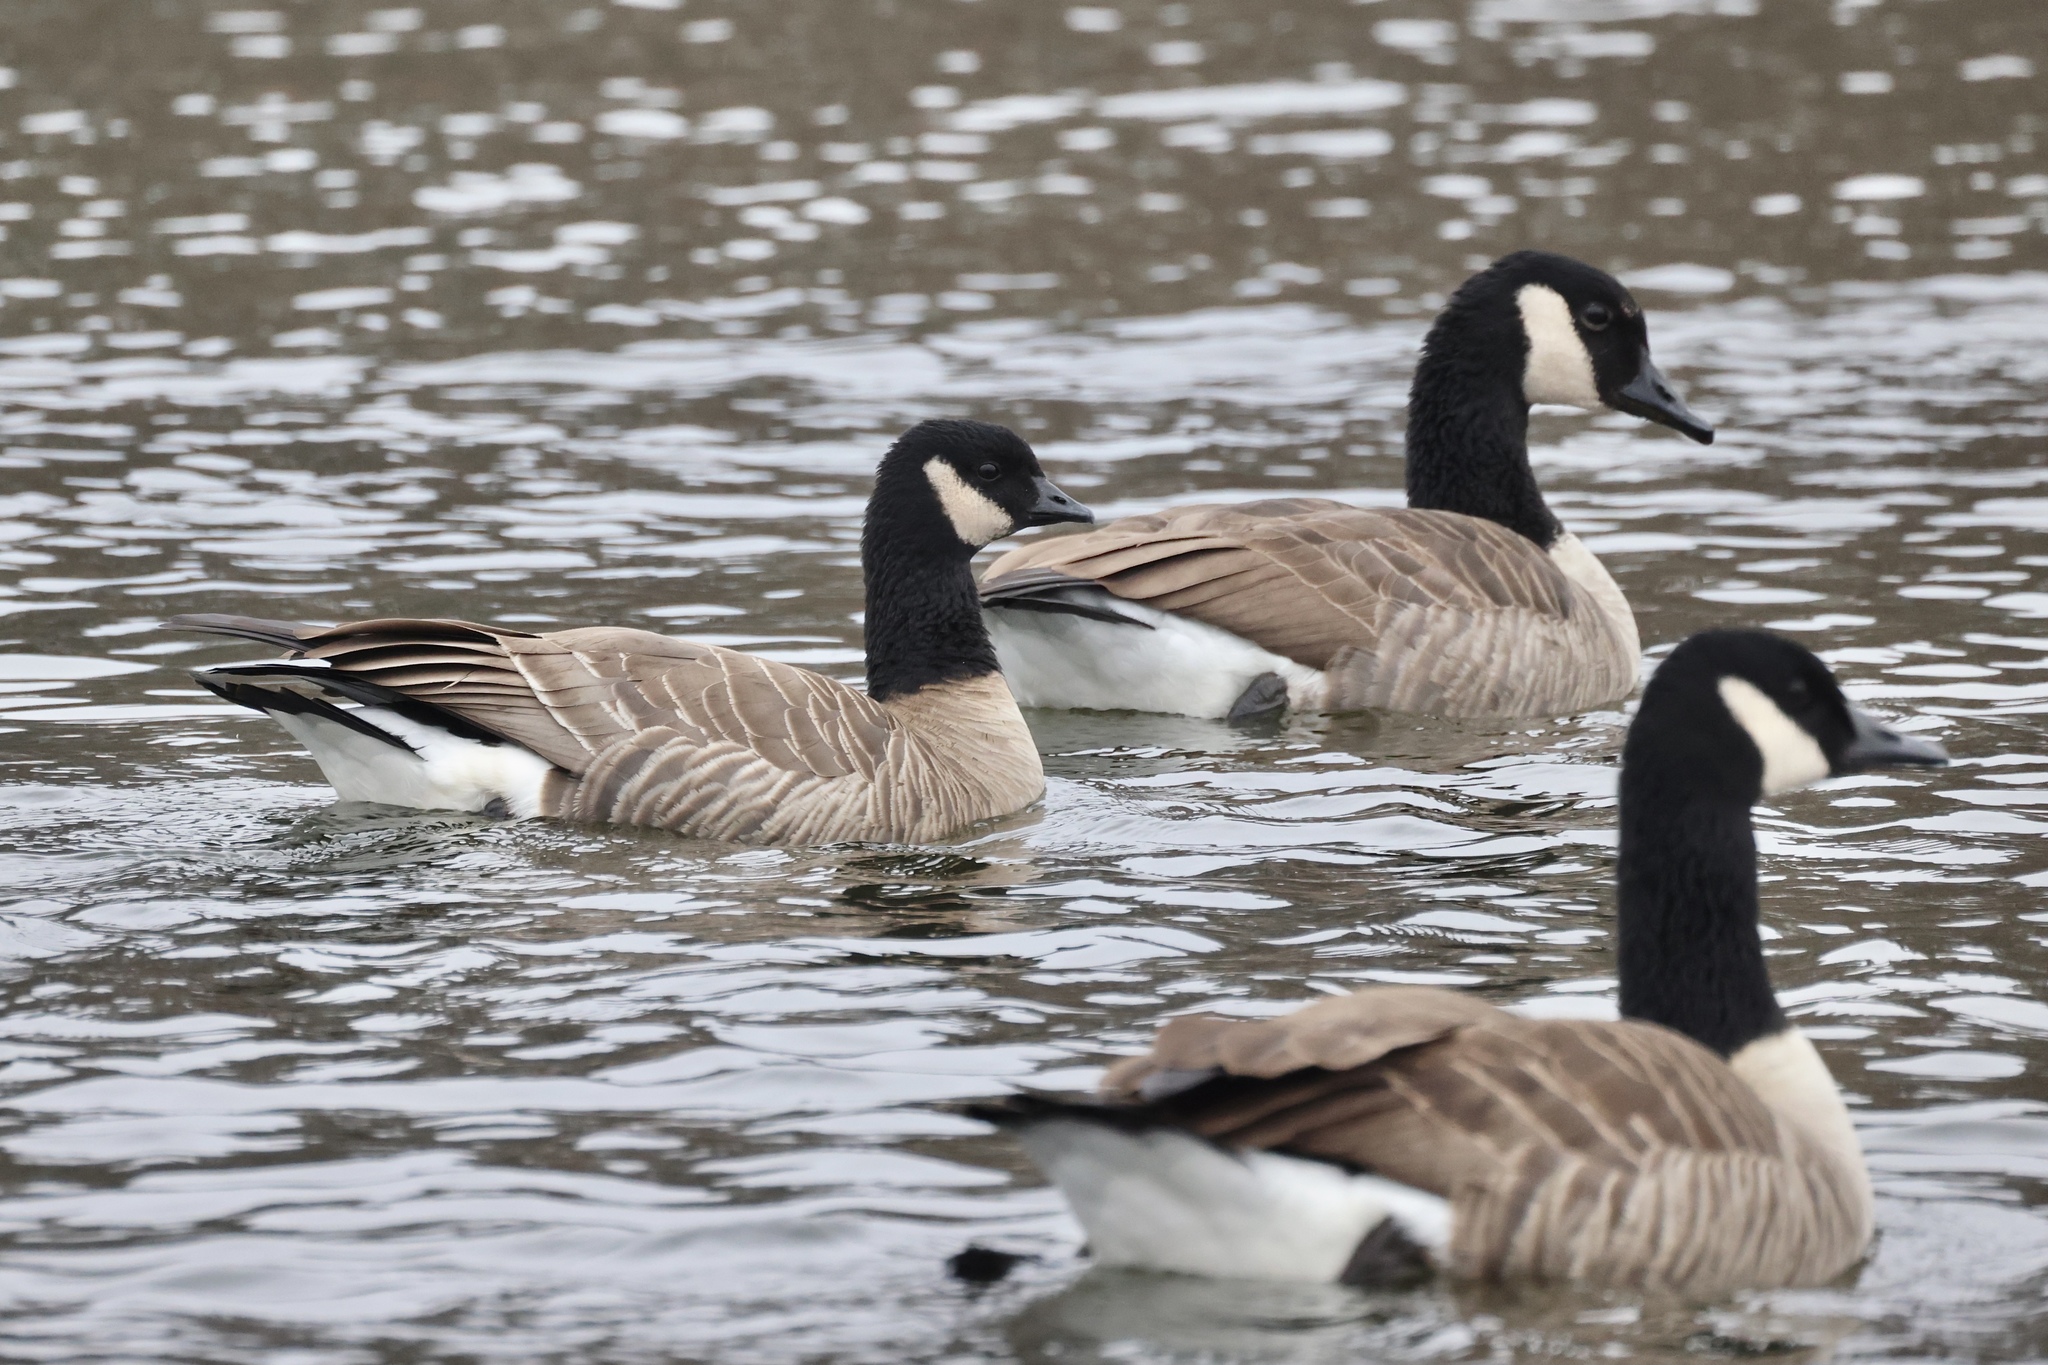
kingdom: Animalia
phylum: Chordata
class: Aves
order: Anseriformes
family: Anatidae
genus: Branta
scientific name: Branta hutchinsii
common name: Cackling goose
